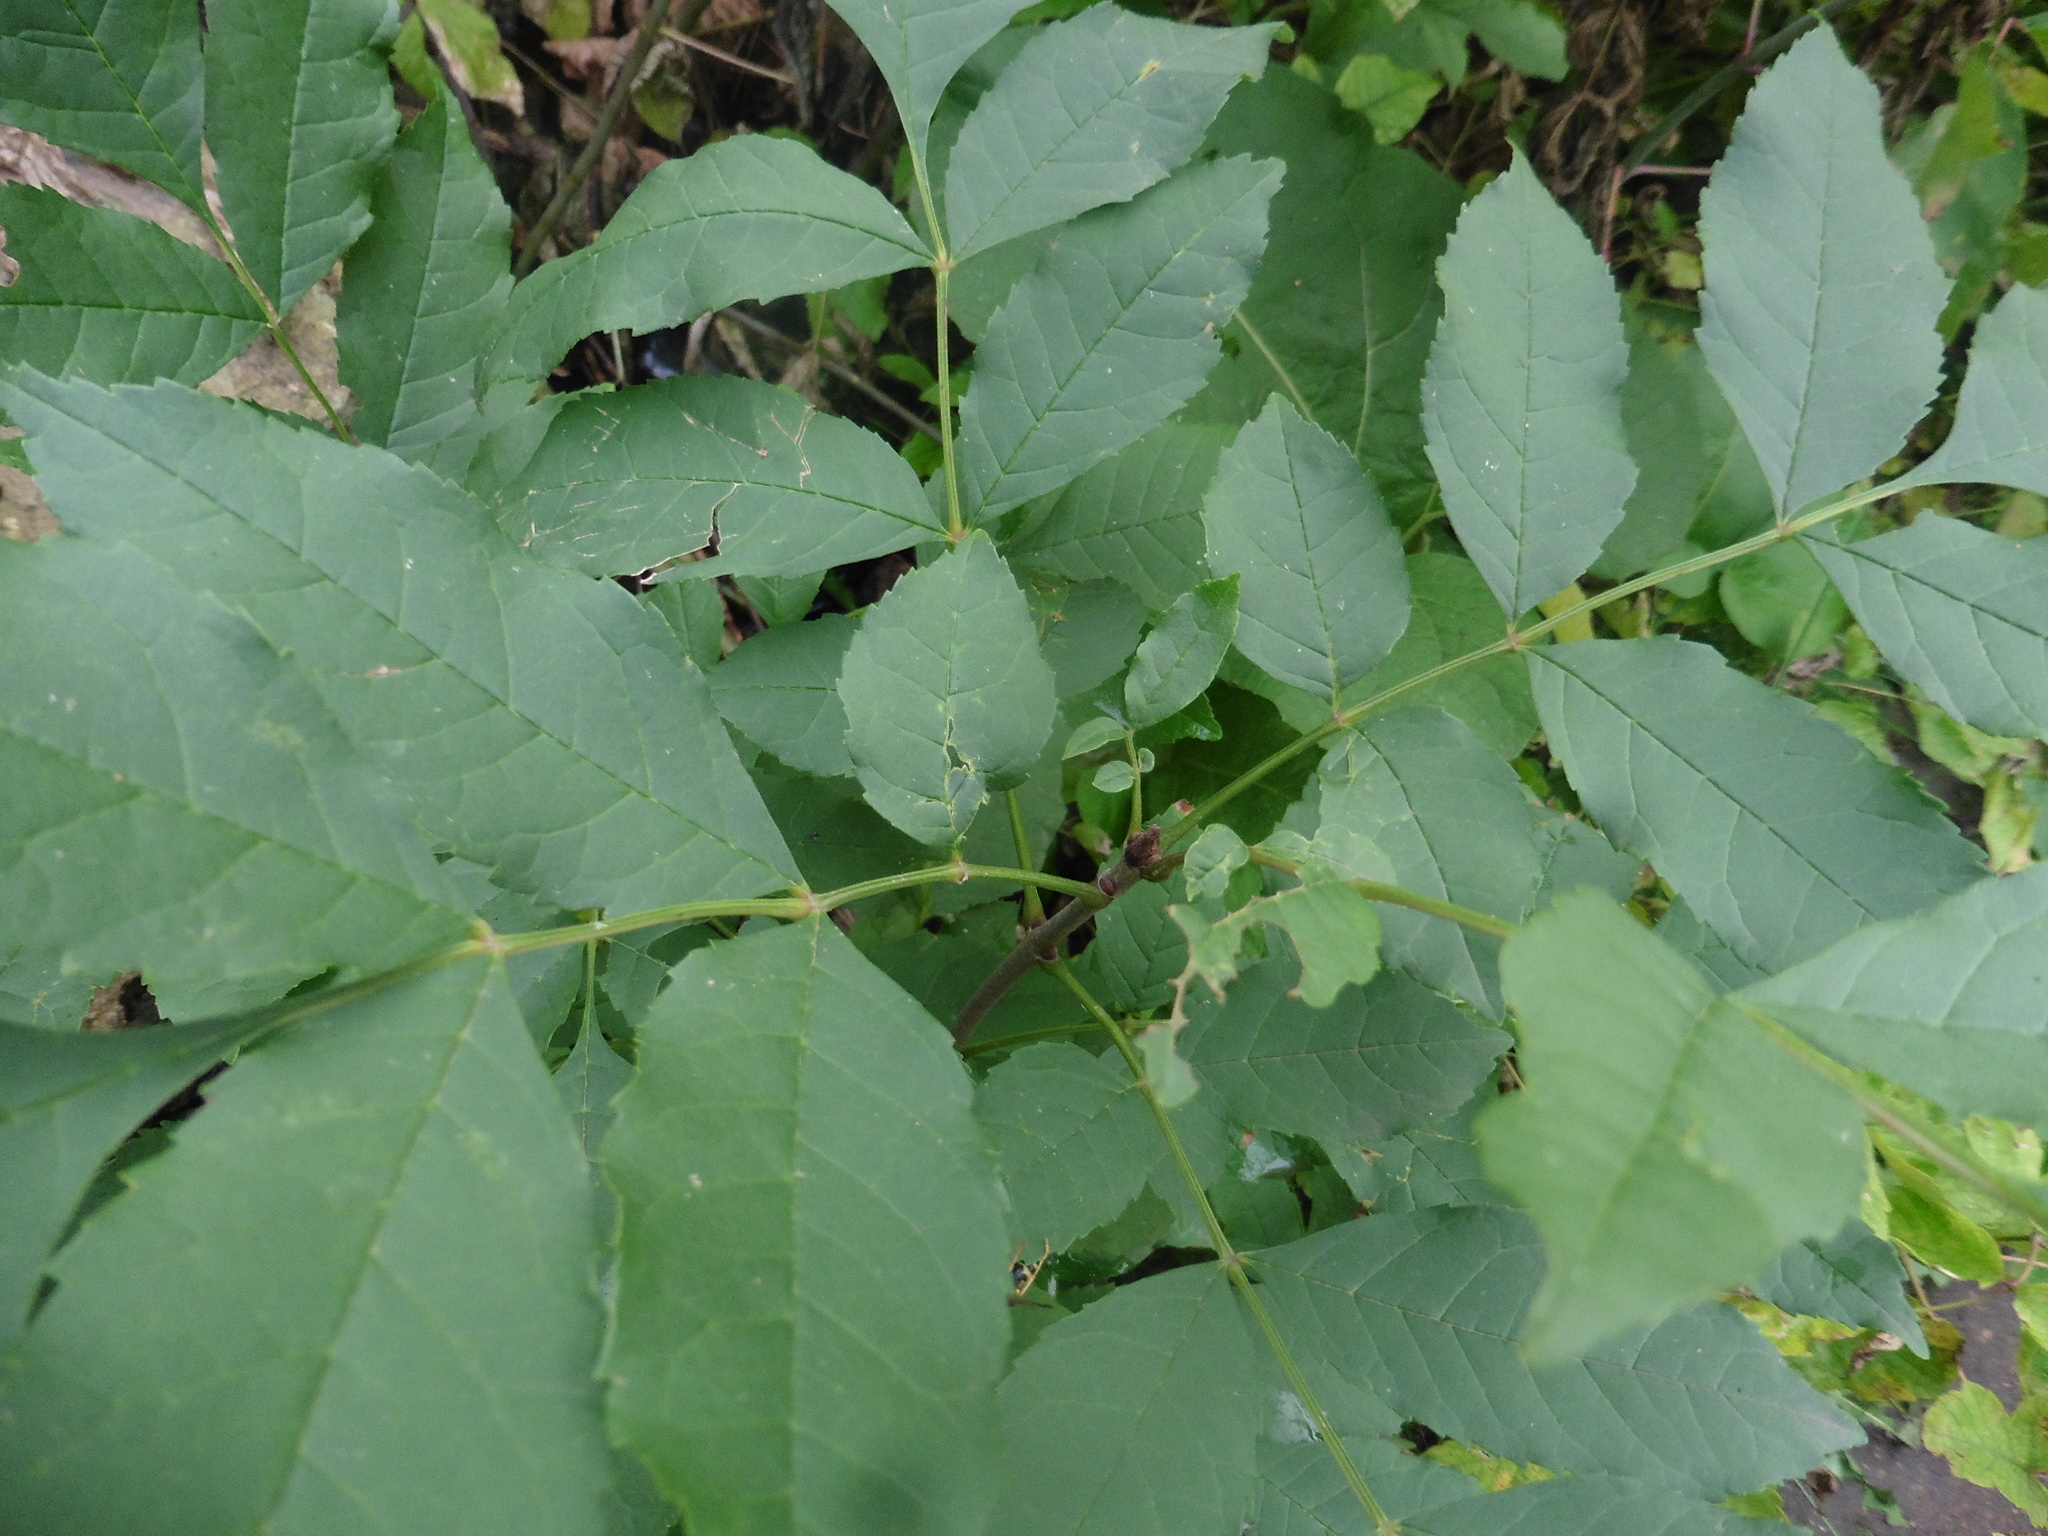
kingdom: Plantae
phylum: Tracheophyta
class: Magnoliopsida
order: Lamiales
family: Oleaceae
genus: Fraxinus
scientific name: Fraxinus pennsylvanica
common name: Green ash
